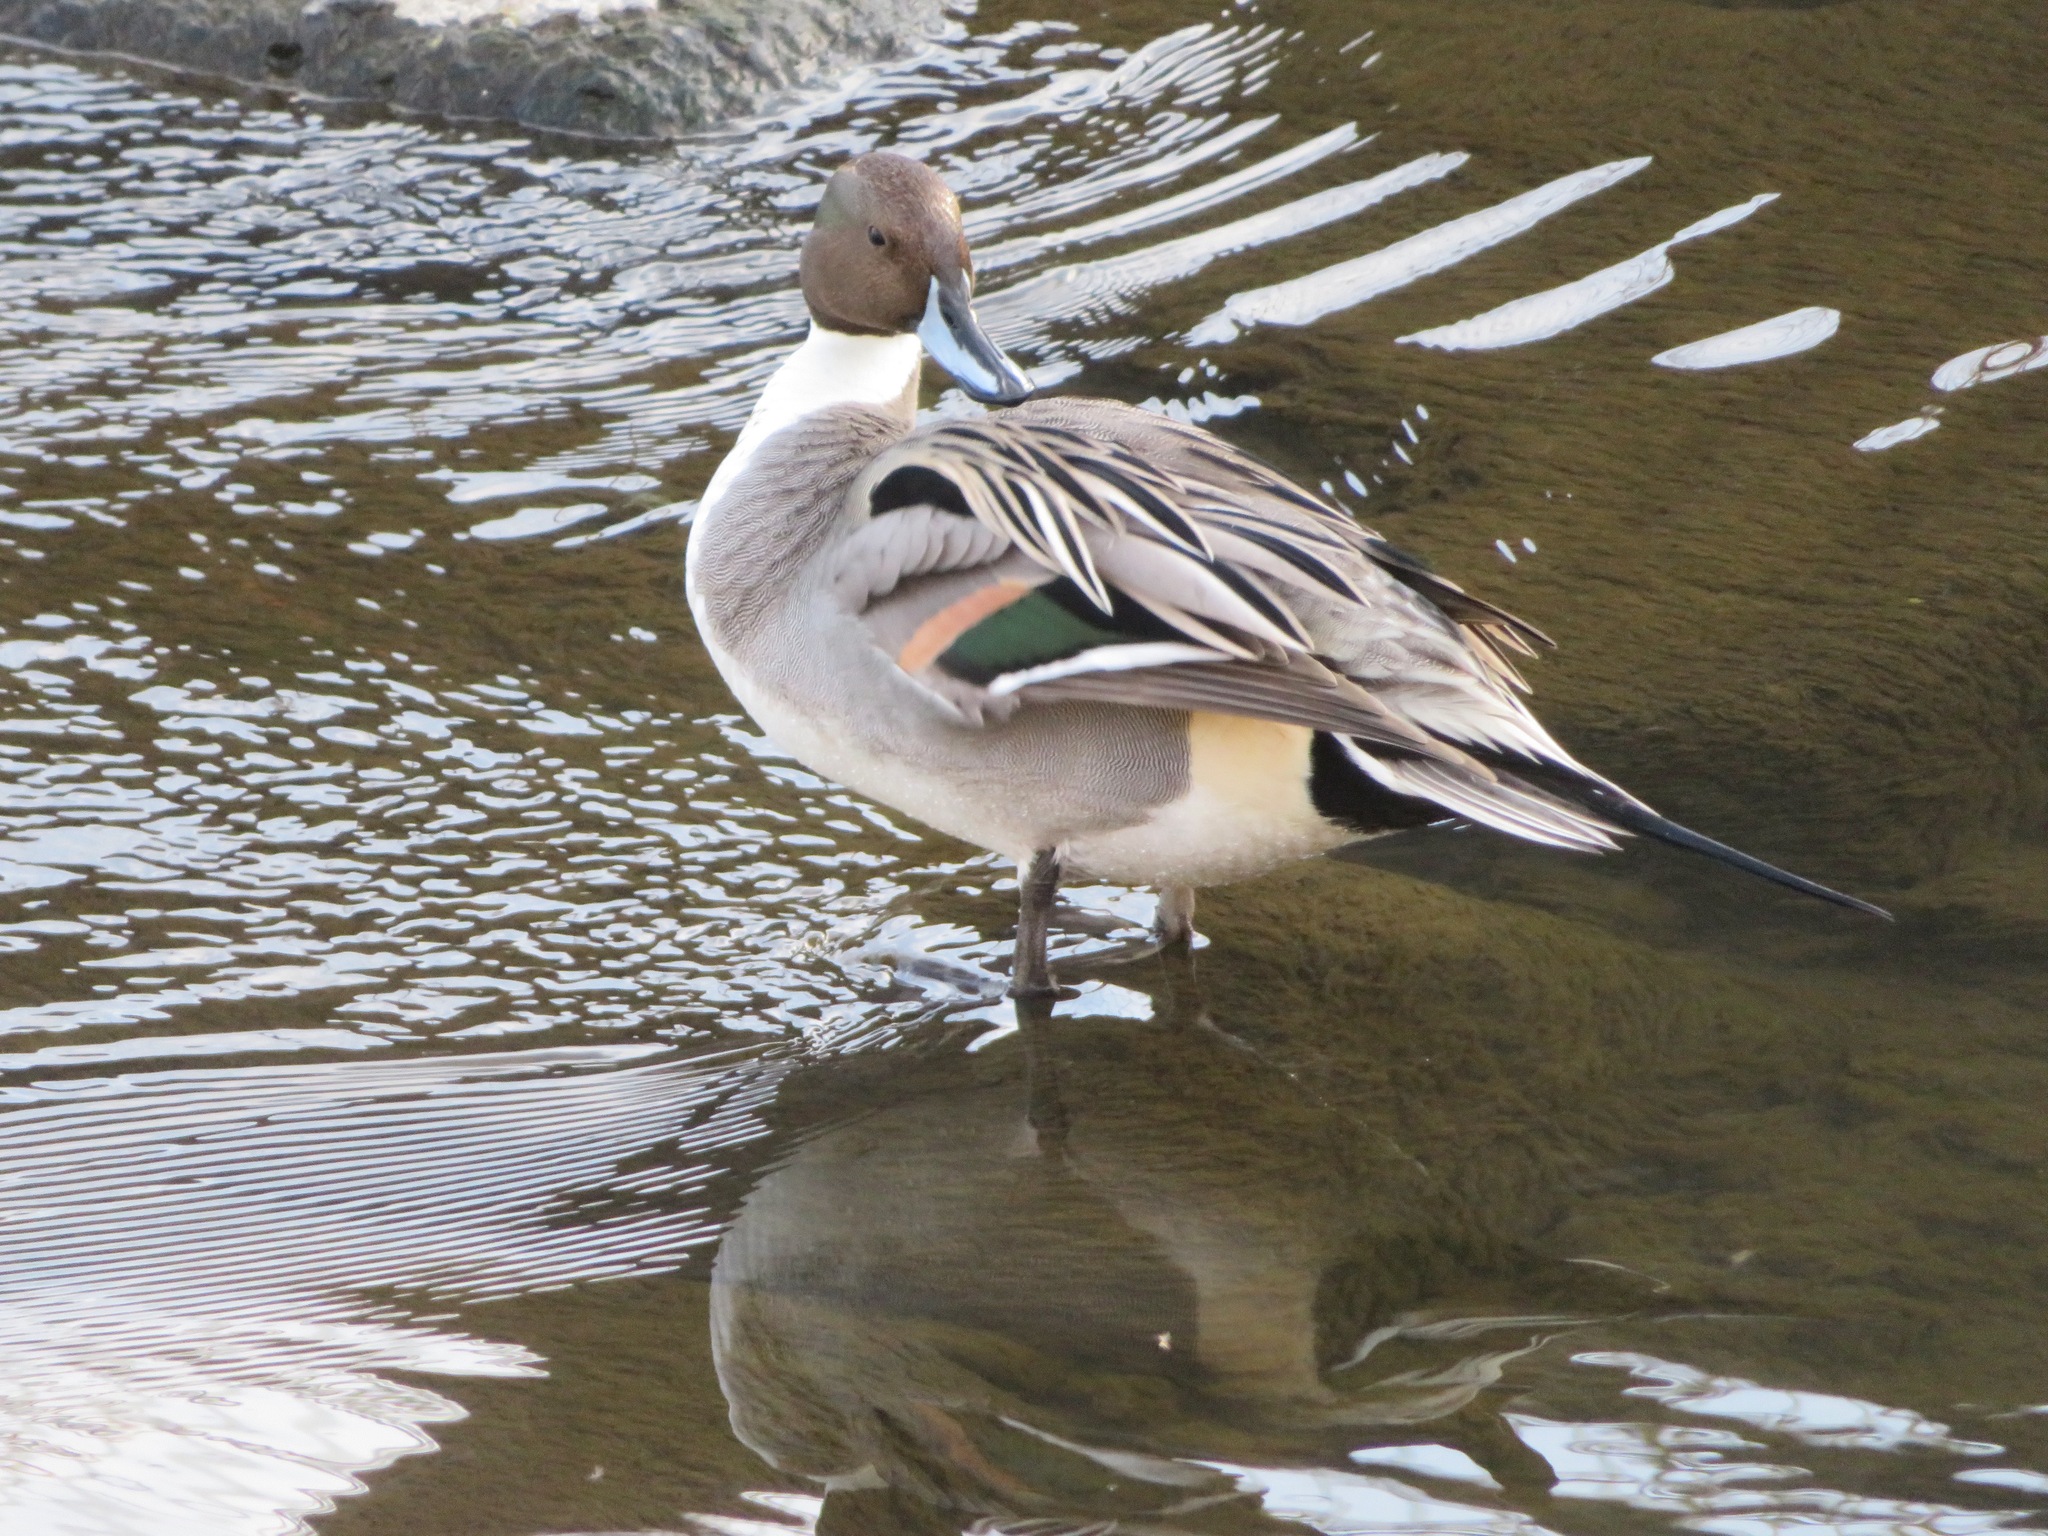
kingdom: Animalia
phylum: Chordata
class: Aves
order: Anseriformes
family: Anatidae
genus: Anas
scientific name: Anas acuta
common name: Northern pintail
